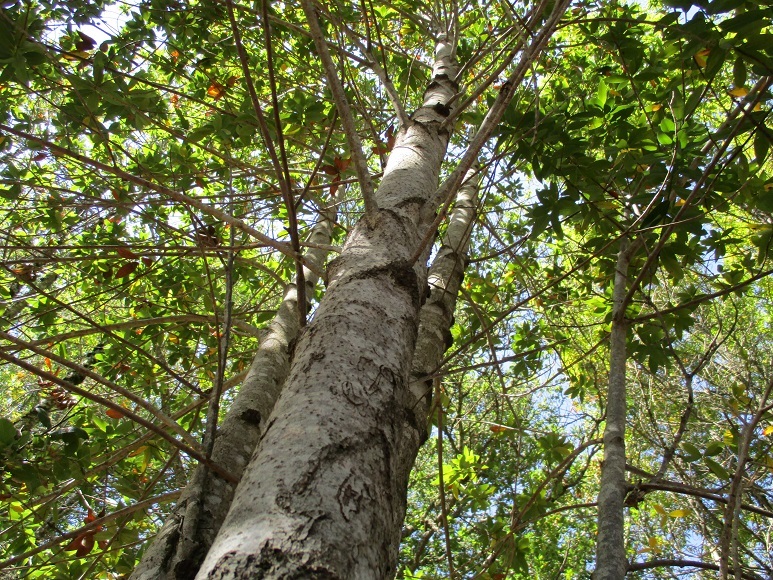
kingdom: Plantae
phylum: Tracheophyta
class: Magnoliopsida
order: Laurales
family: Lauraceae
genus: Umbellularia
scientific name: Umbellularia californica
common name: California bay
